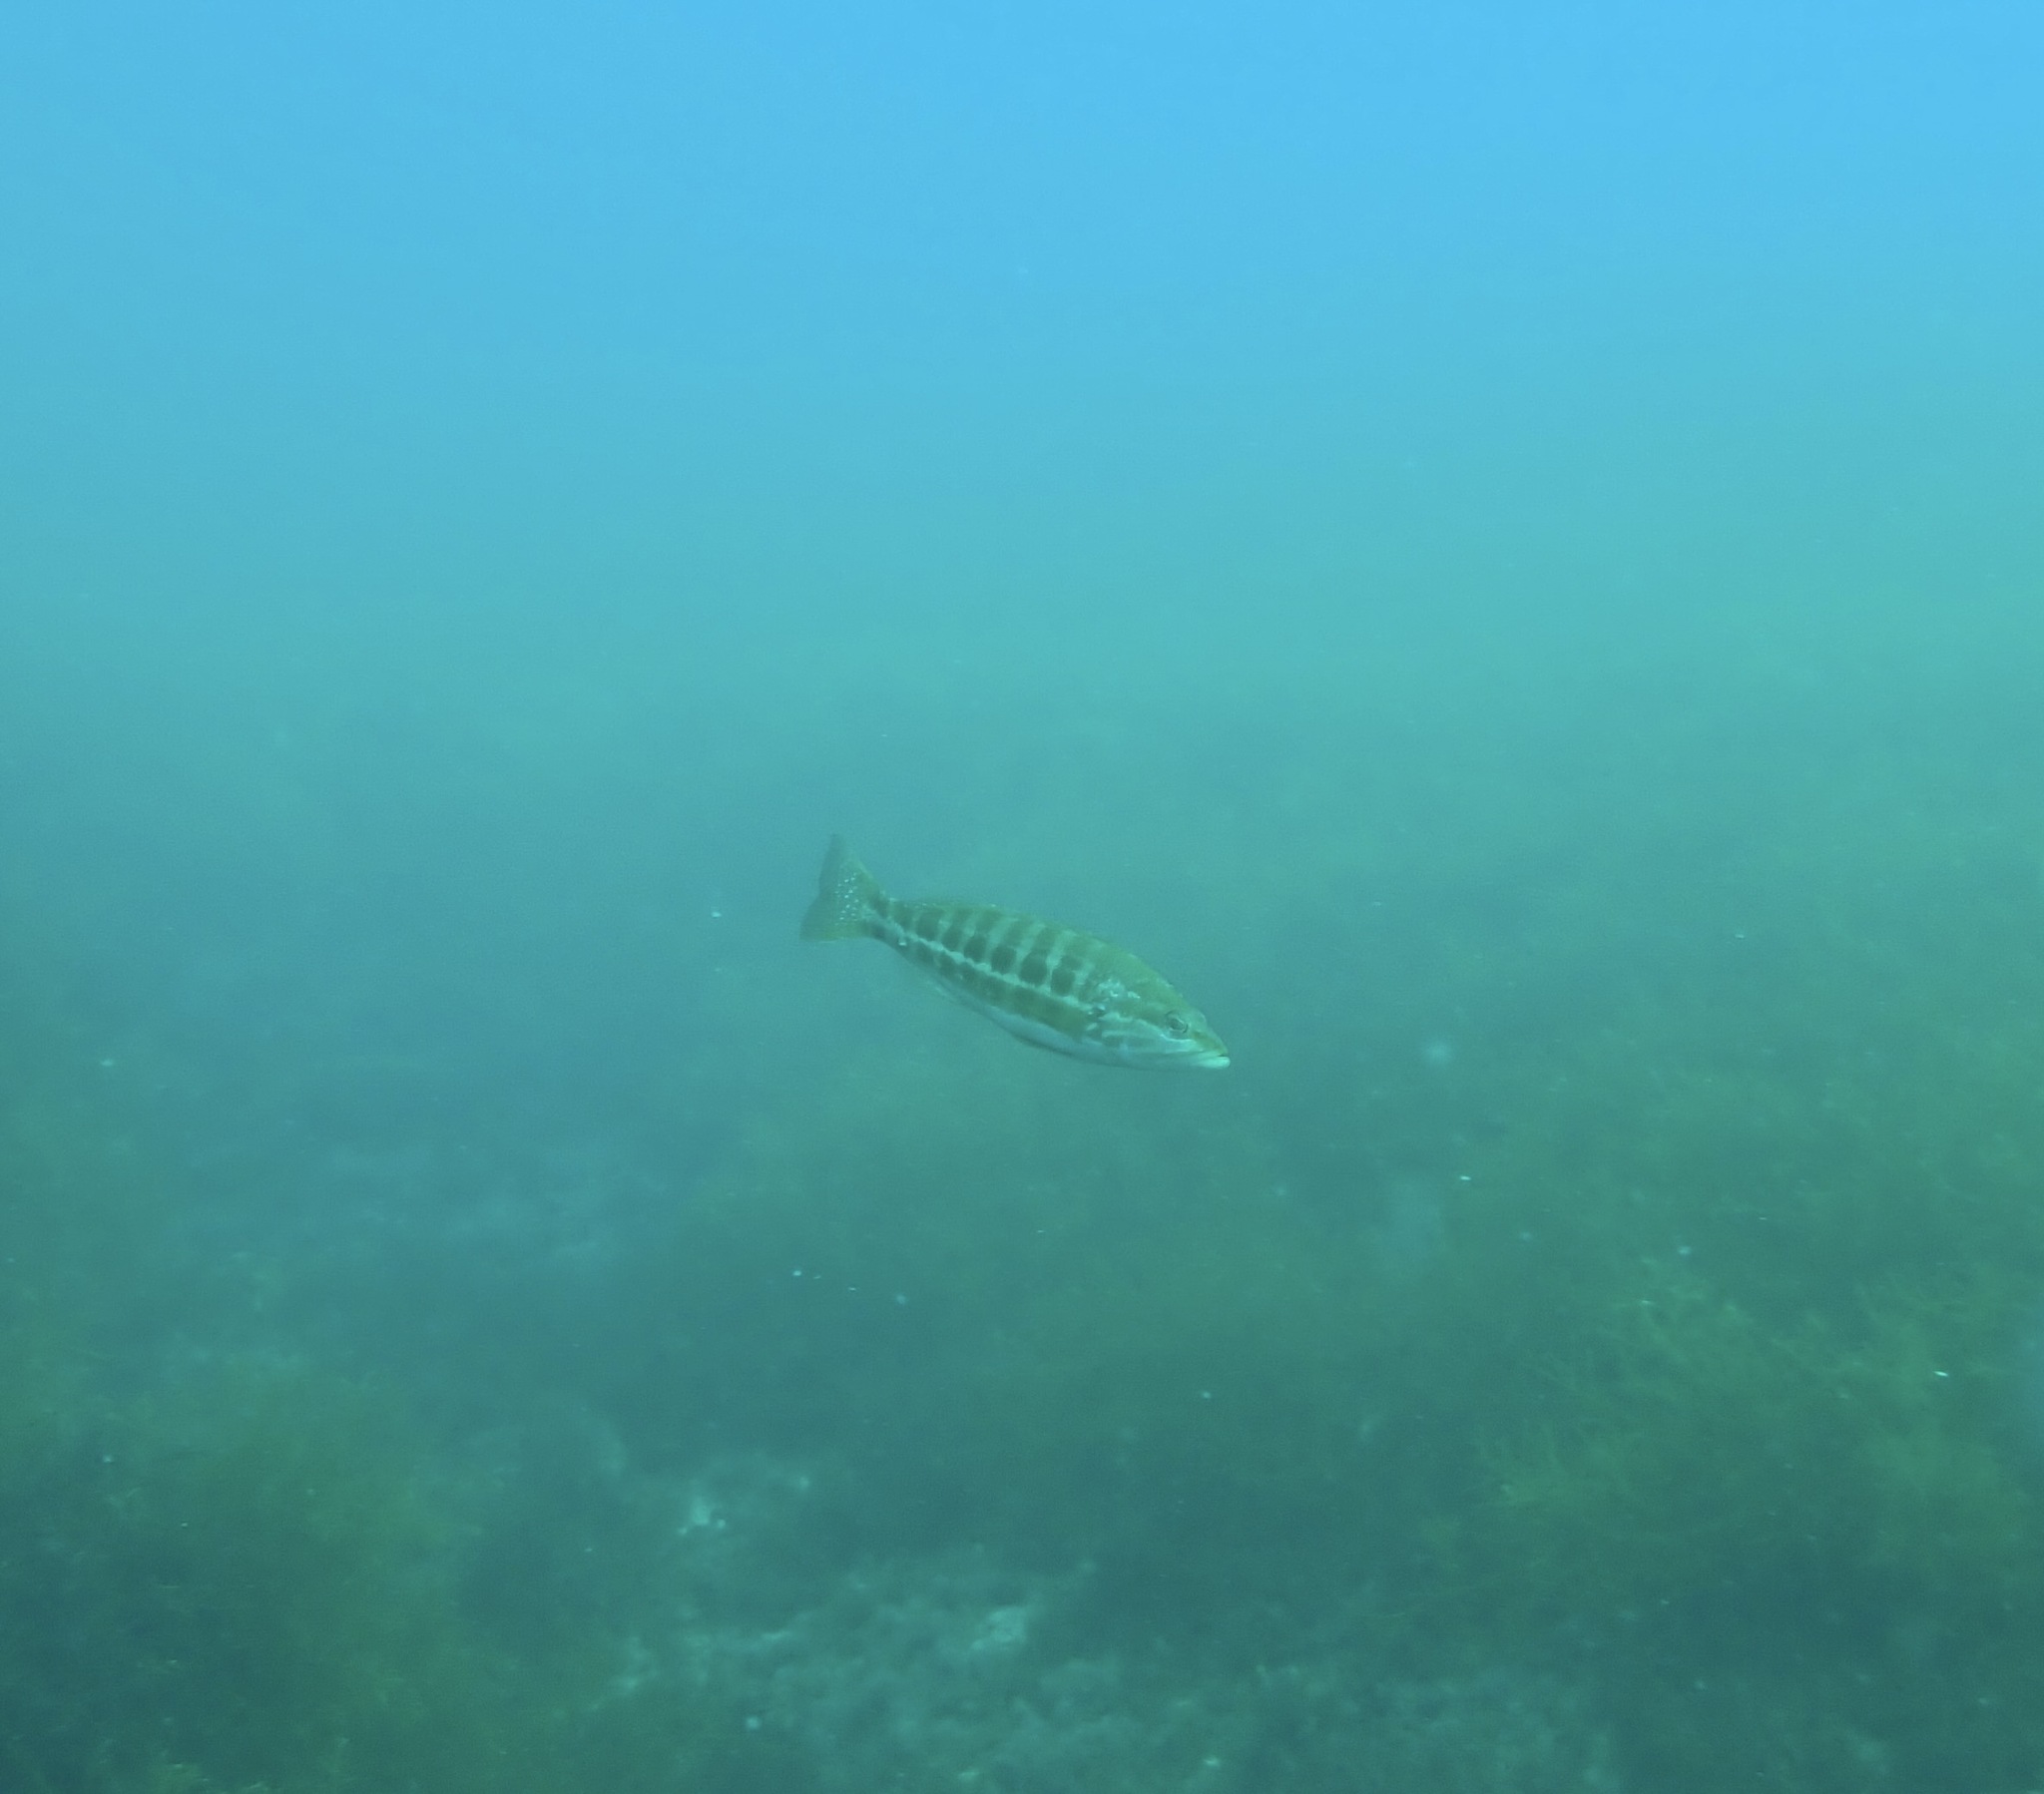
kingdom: Animalia
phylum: Chordata
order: Perciformes
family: Serranidae
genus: Serranus
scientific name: Serranus cabrilla
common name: Comber
